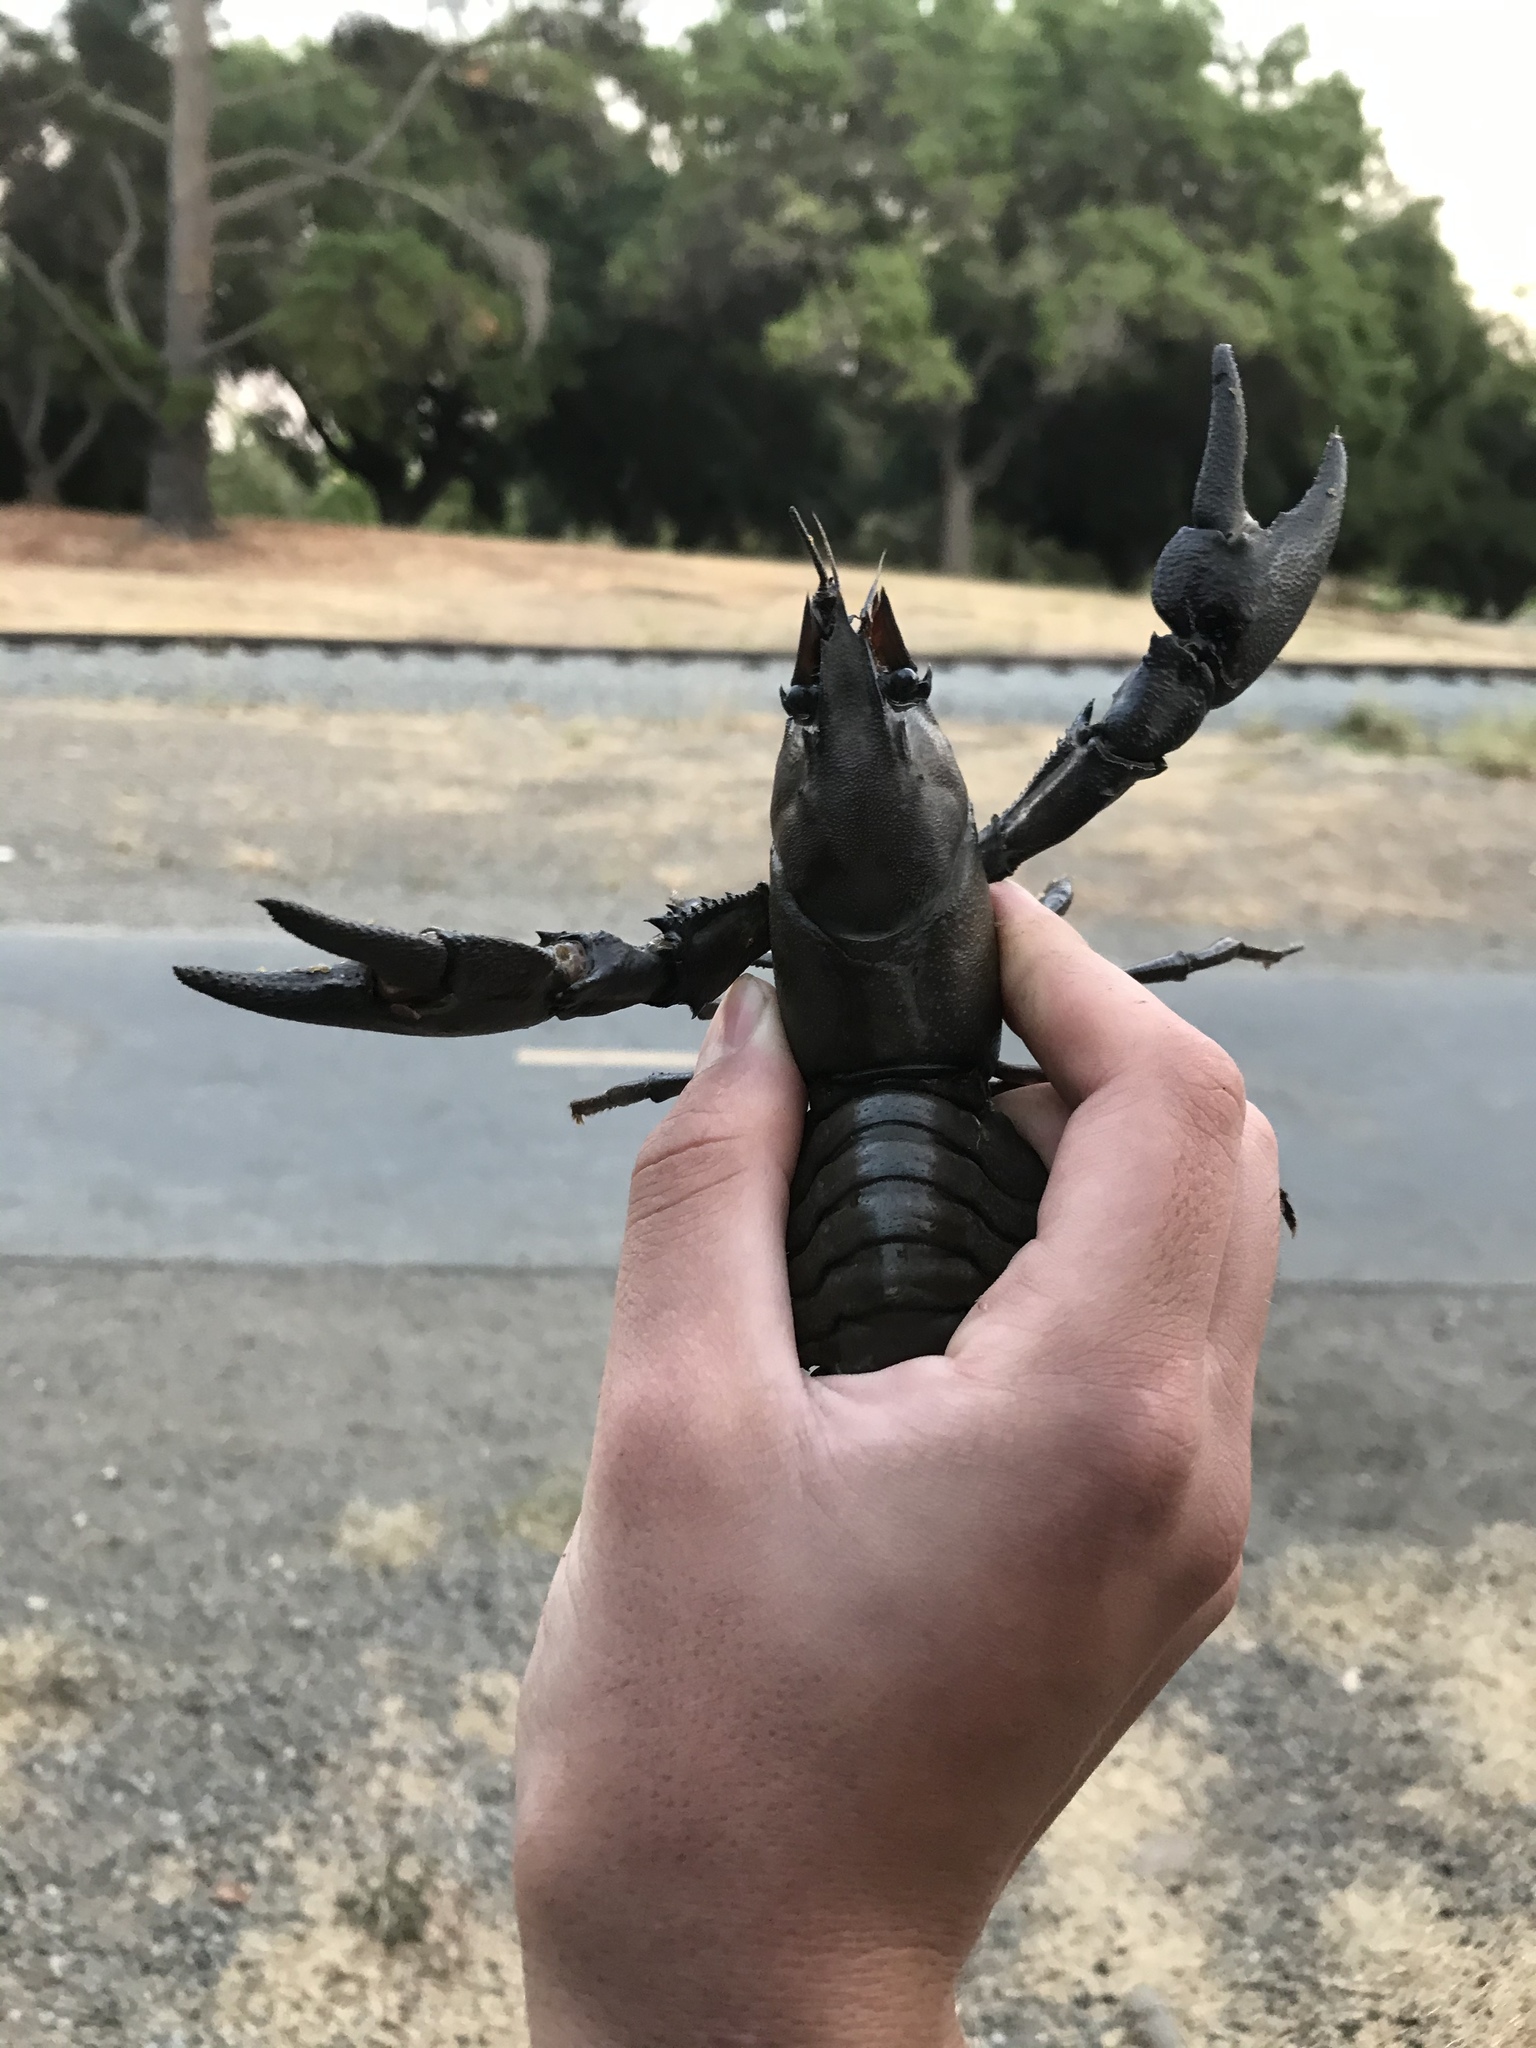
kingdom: Animalia
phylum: Arthropoda
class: Malacostraca
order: Decapoda
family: Astacidae
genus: Pacifastacus
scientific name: Pacifastacus leniusculus
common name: Signal crayfish
